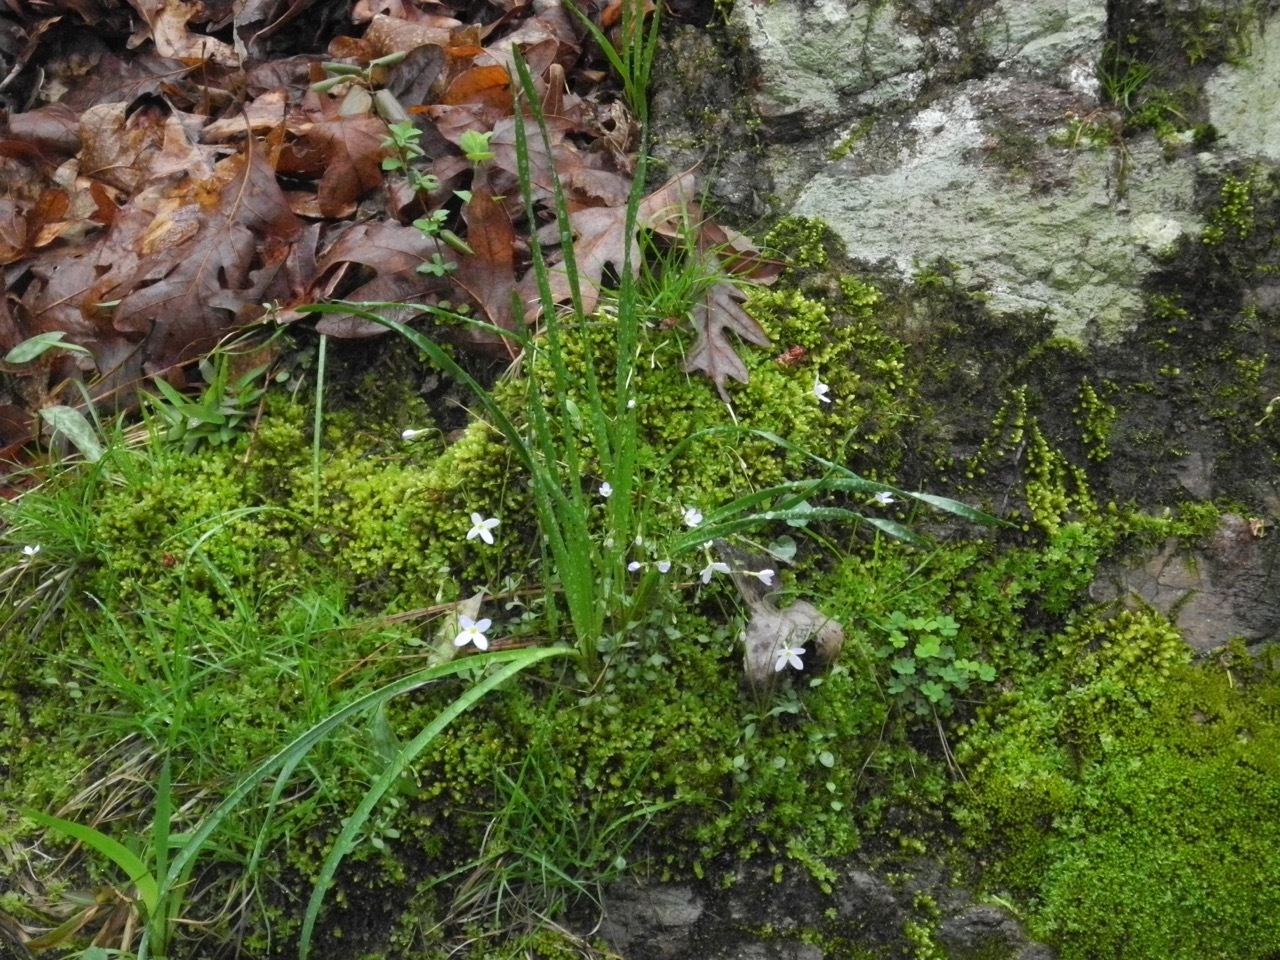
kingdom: Plantae
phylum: Tracheophyta
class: Liliopsida
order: Asparagales
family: Amaryllidaceae
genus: Zephyranthes
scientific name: Zephyranthes atamasco
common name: Atamasco lily
